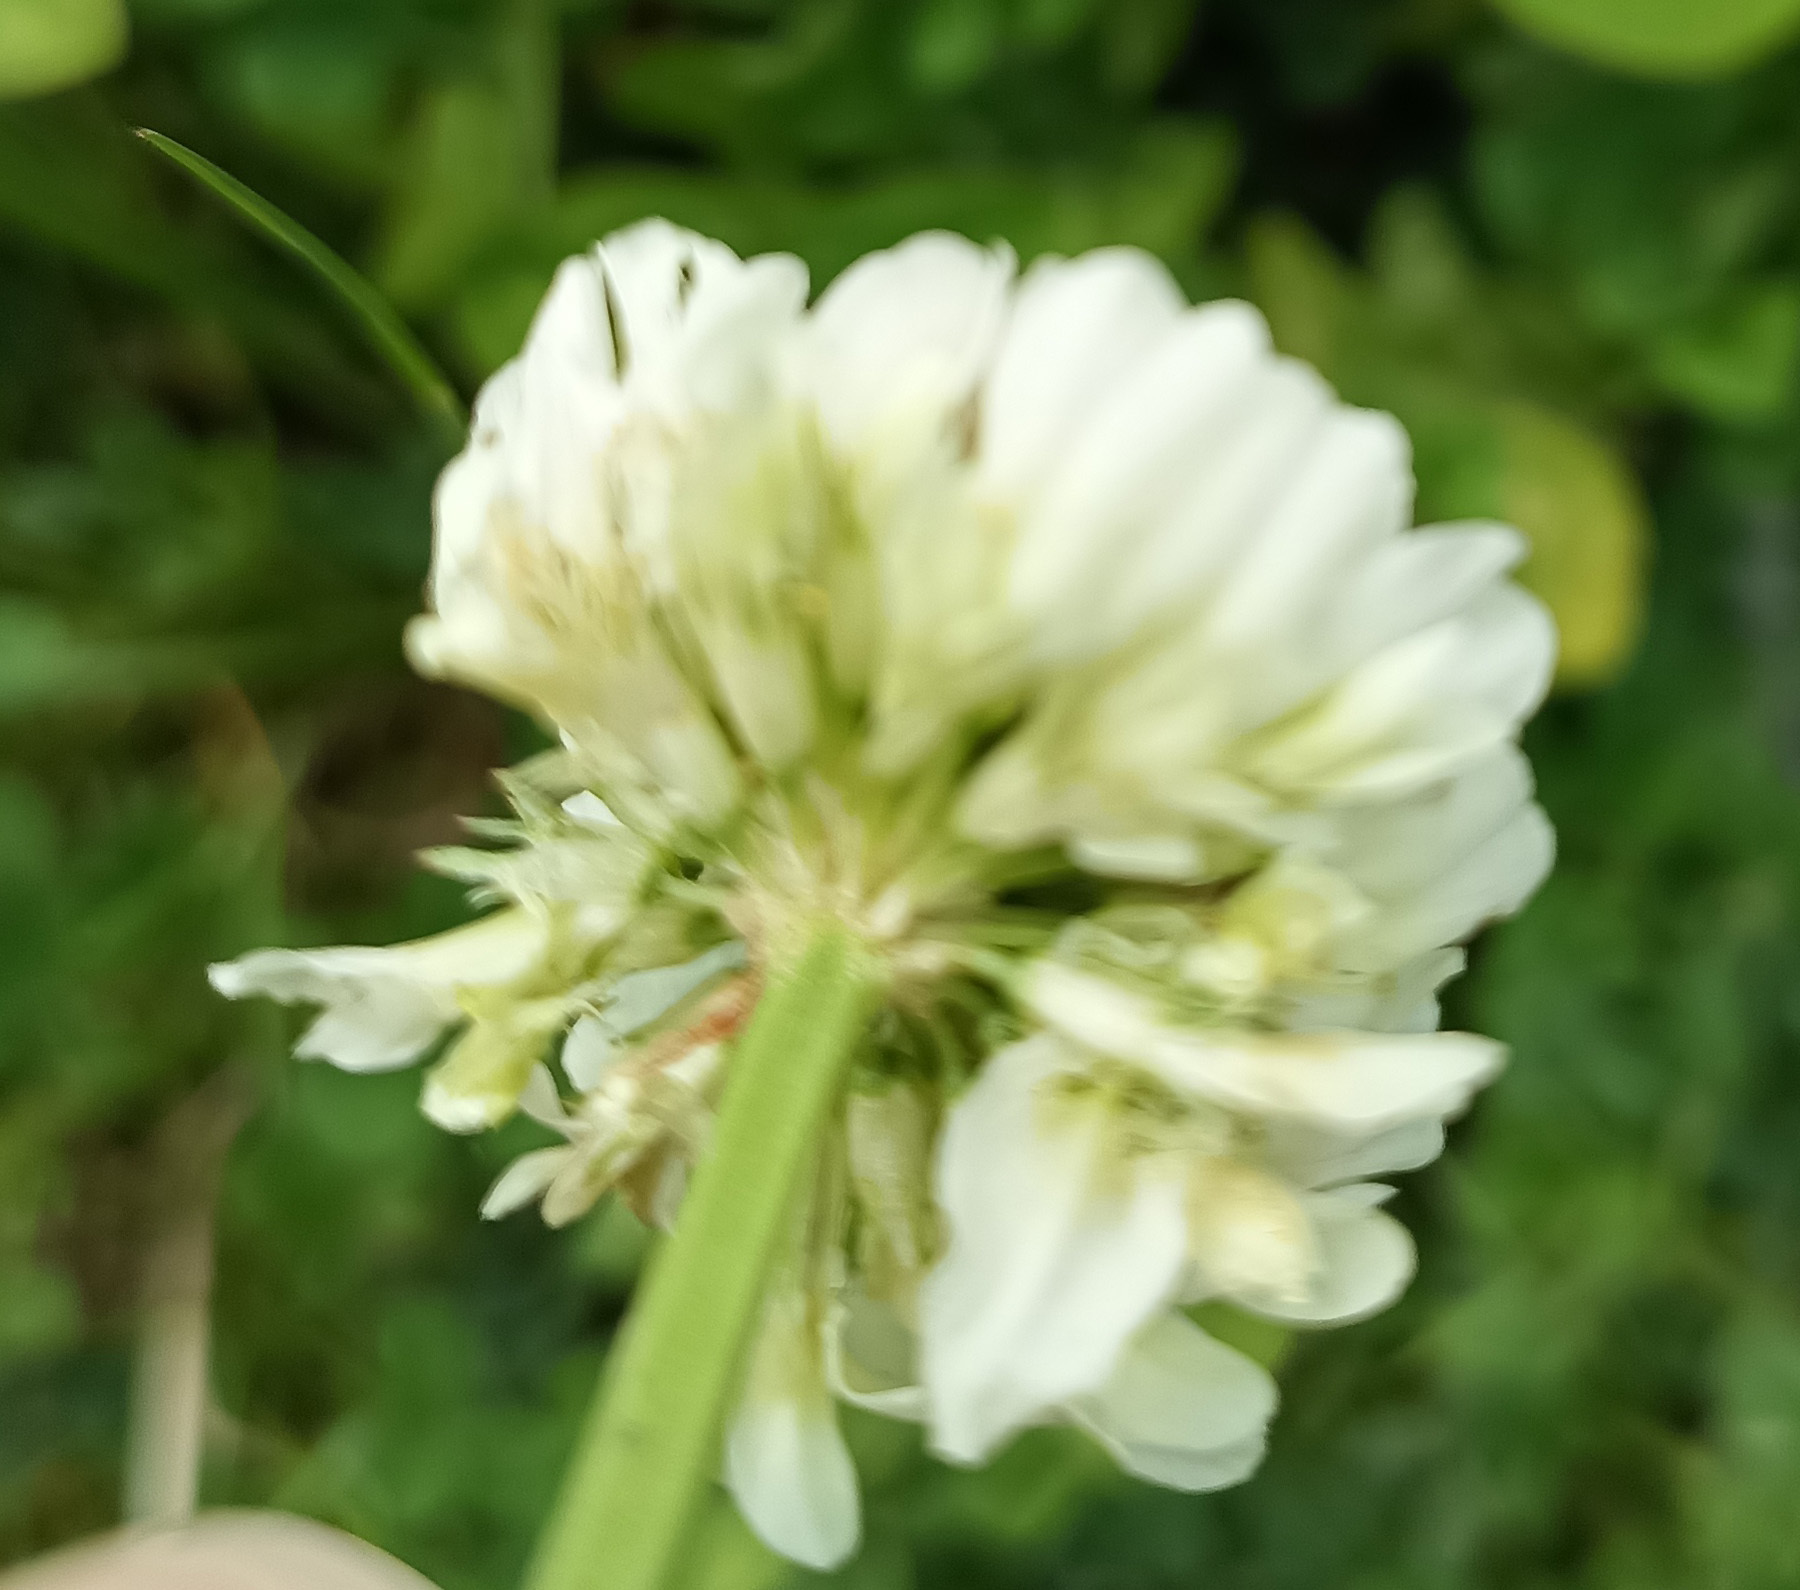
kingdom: Plantae
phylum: Tracheophyta
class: Magnoliopsida
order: Fabales
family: Fabaceae
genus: Trifolium
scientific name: Trifolium repens
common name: White clover
